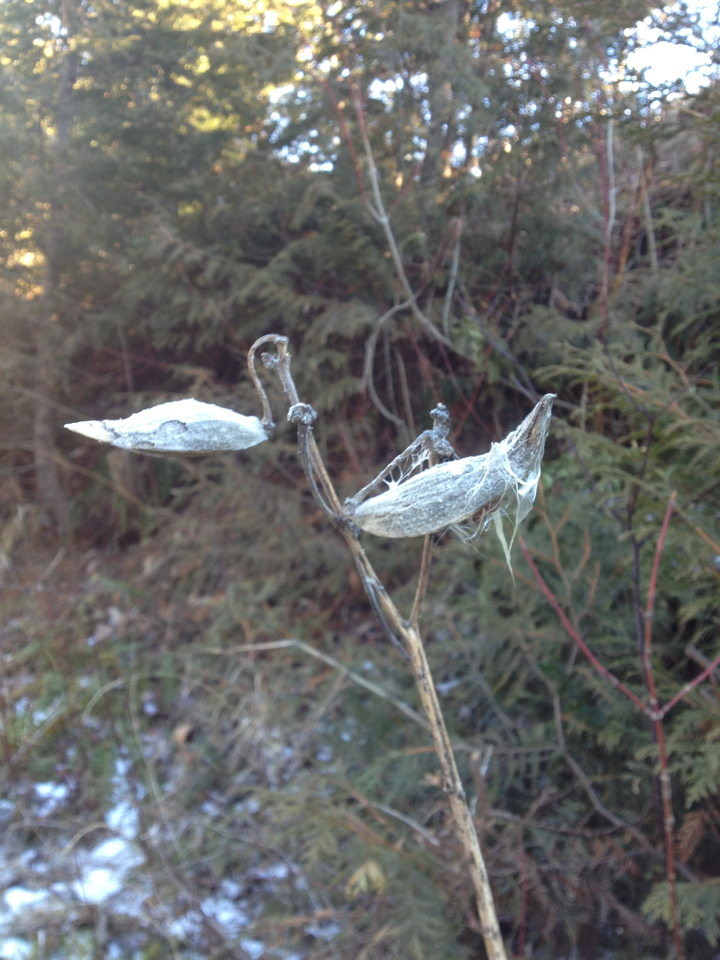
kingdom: Plantae
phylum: Tracheophyta
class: Magnoliopsida
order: Gentianales
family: Apocynaceae
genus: Asclepias
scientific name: Asclepias syriaca
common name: Common milkweed
